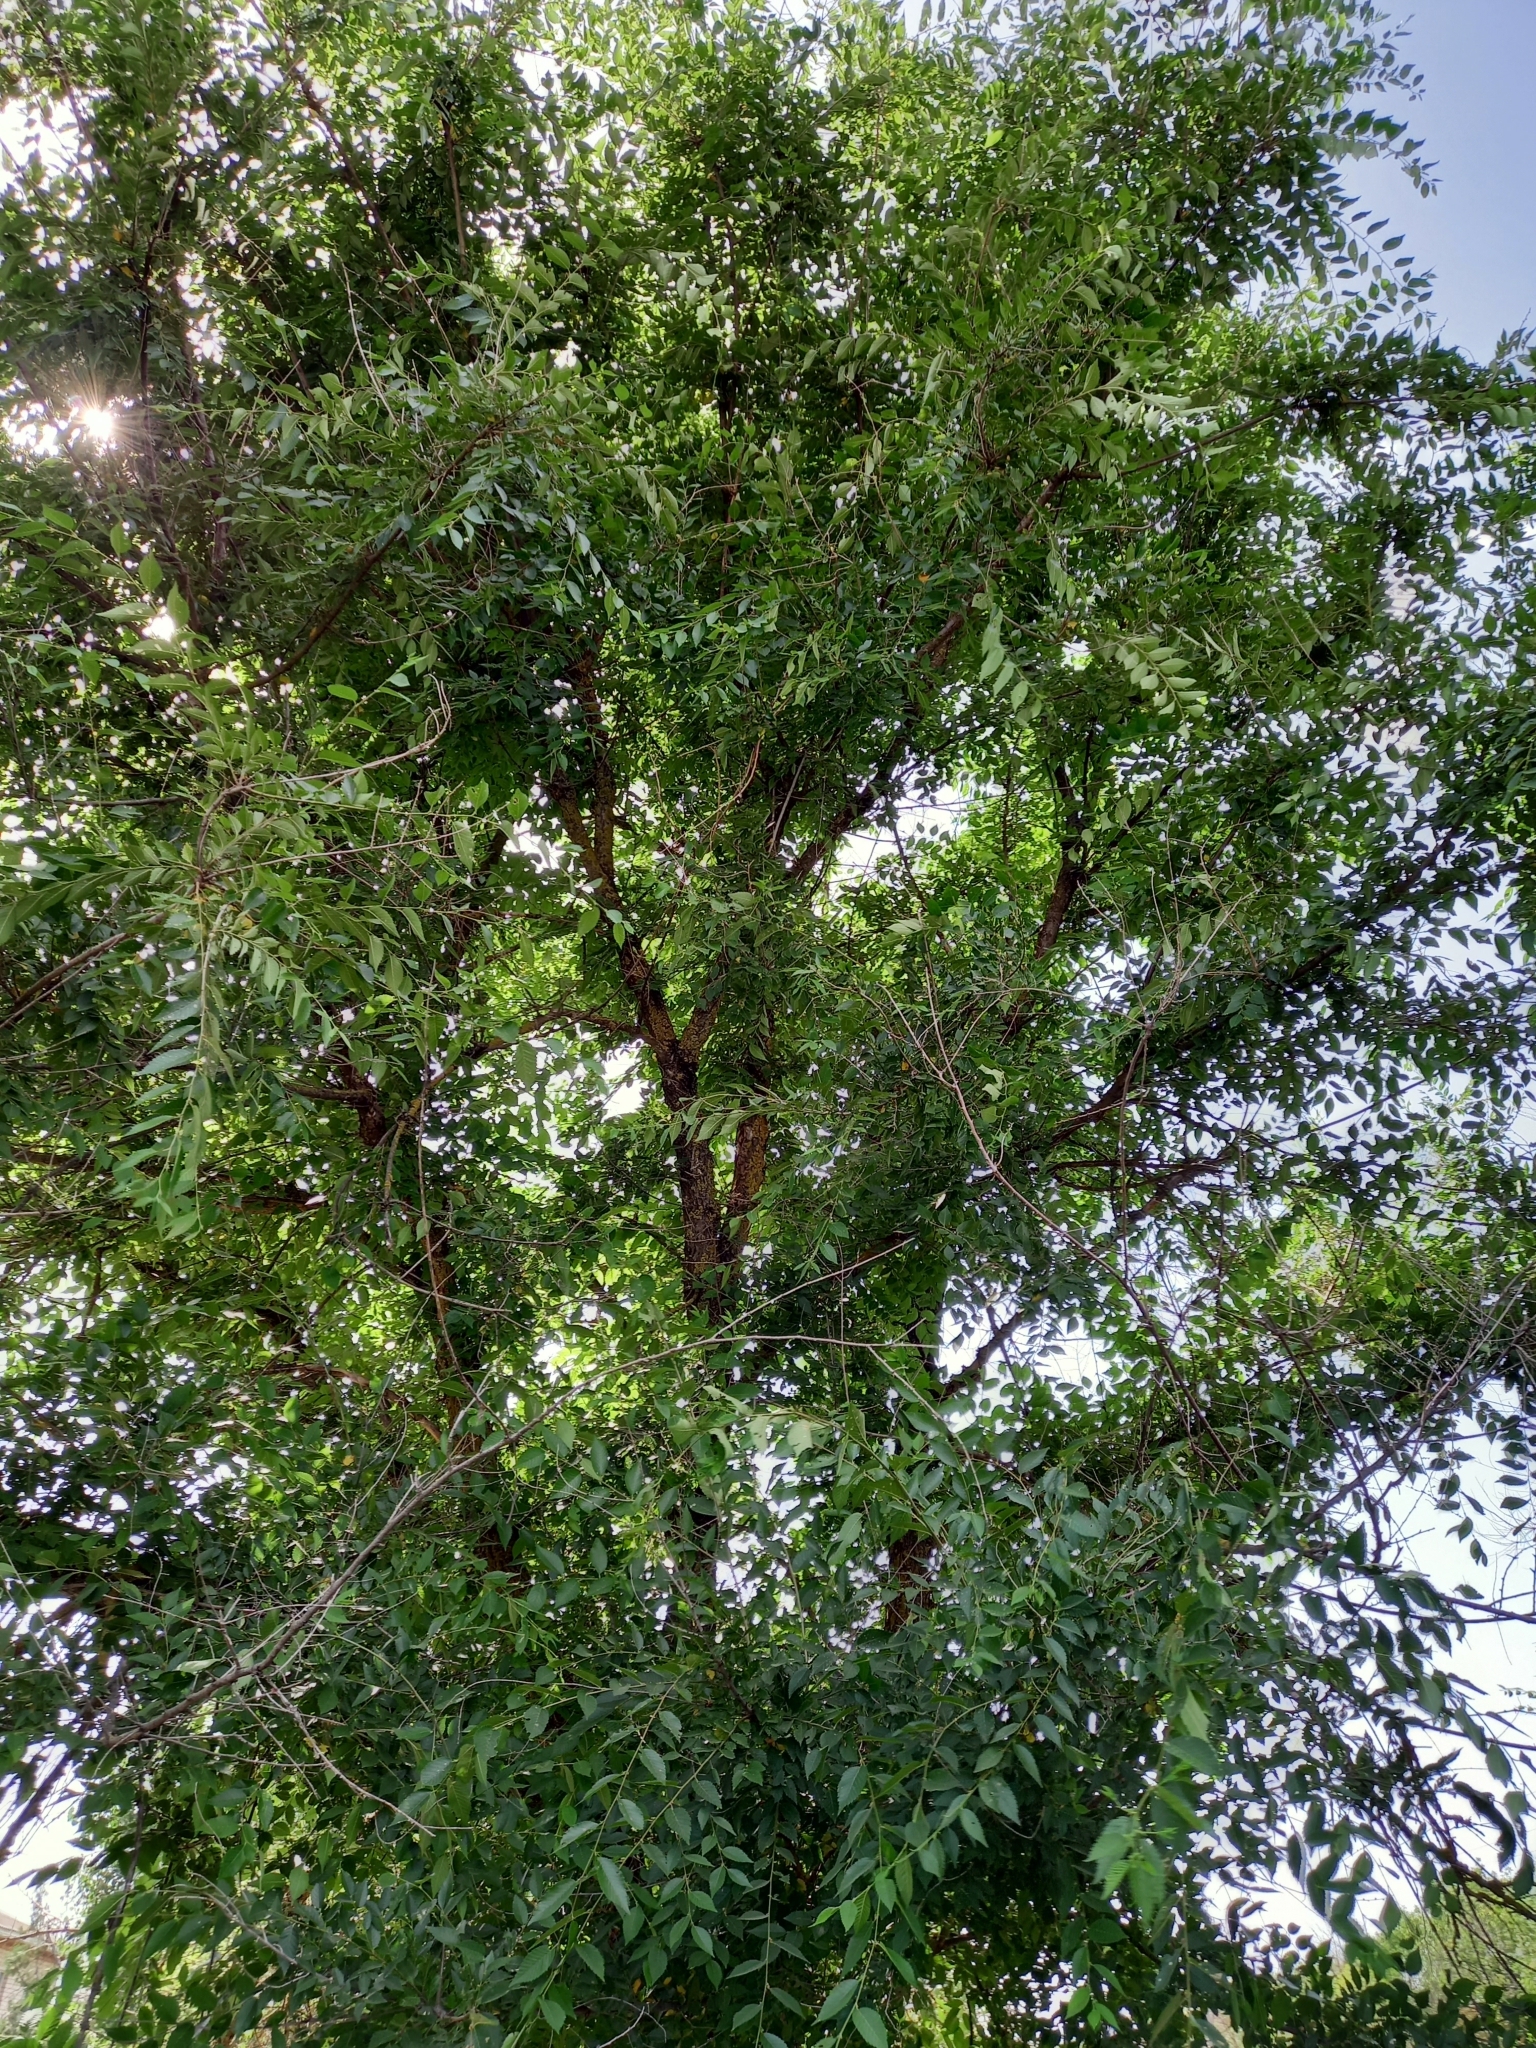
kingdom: Plantae
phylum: Tracheophyta
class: Magnoliopsida
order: Rosales
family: Ulmaceae
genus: Ulmus
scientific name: Ulmus pumila
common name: Siberian elm
